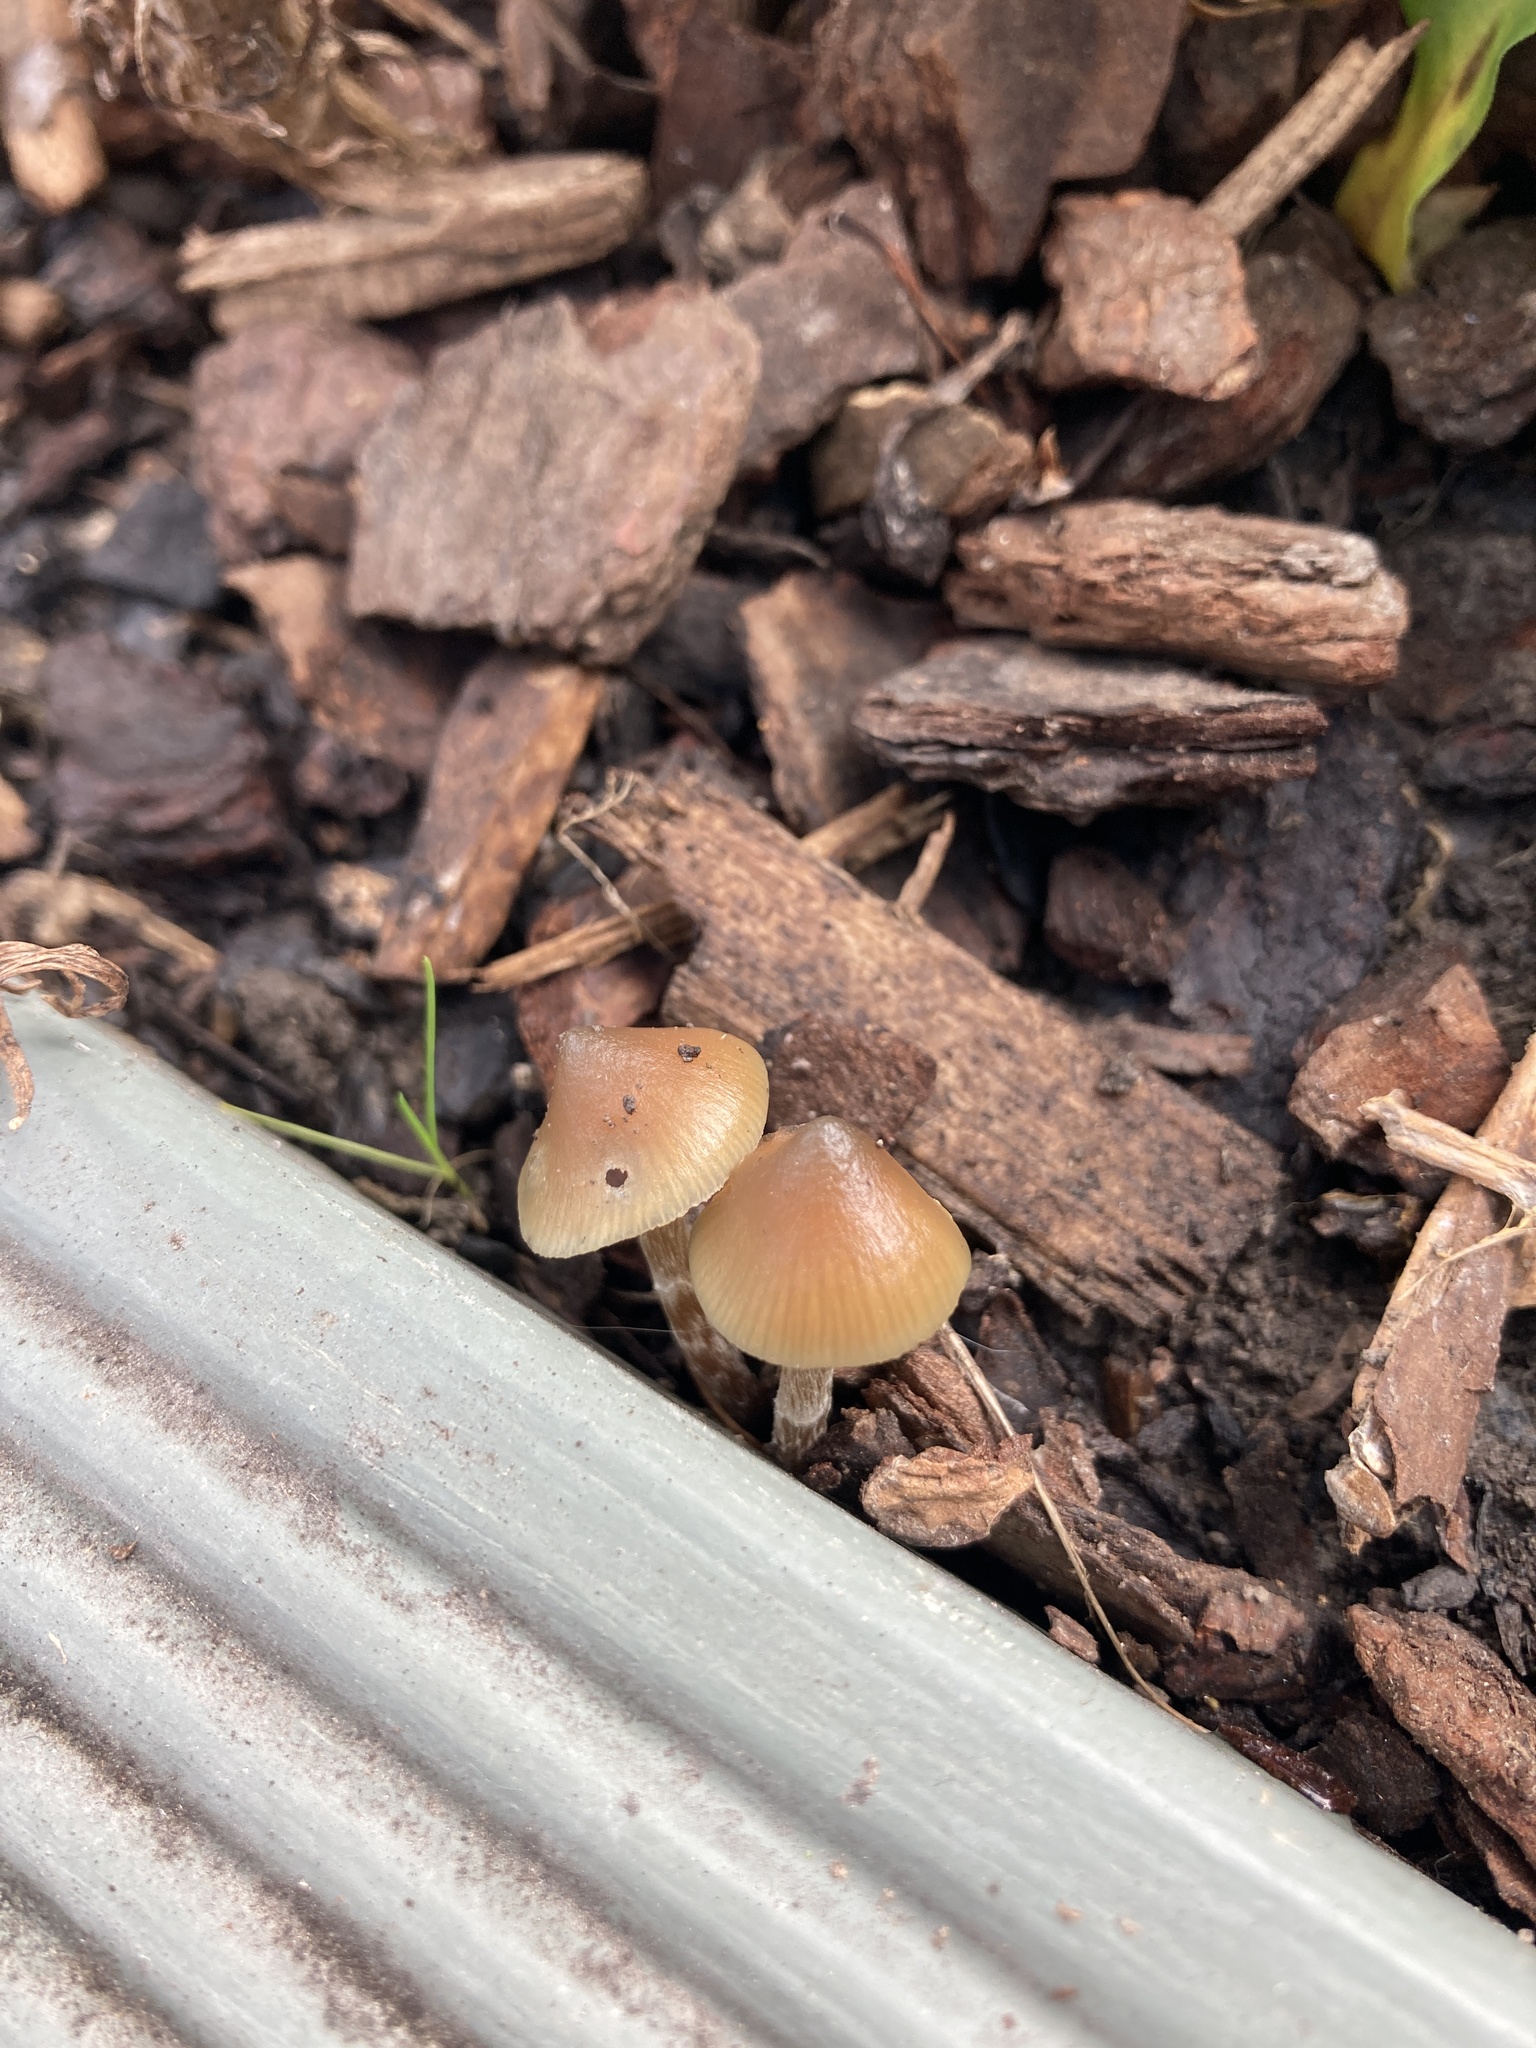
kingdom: Fungi
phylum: Basidiomycota
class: Agaricomycetes
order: Agaricales
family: Hymenogastraceae
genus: Psilocybe
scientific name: Psilocybe angulospora
